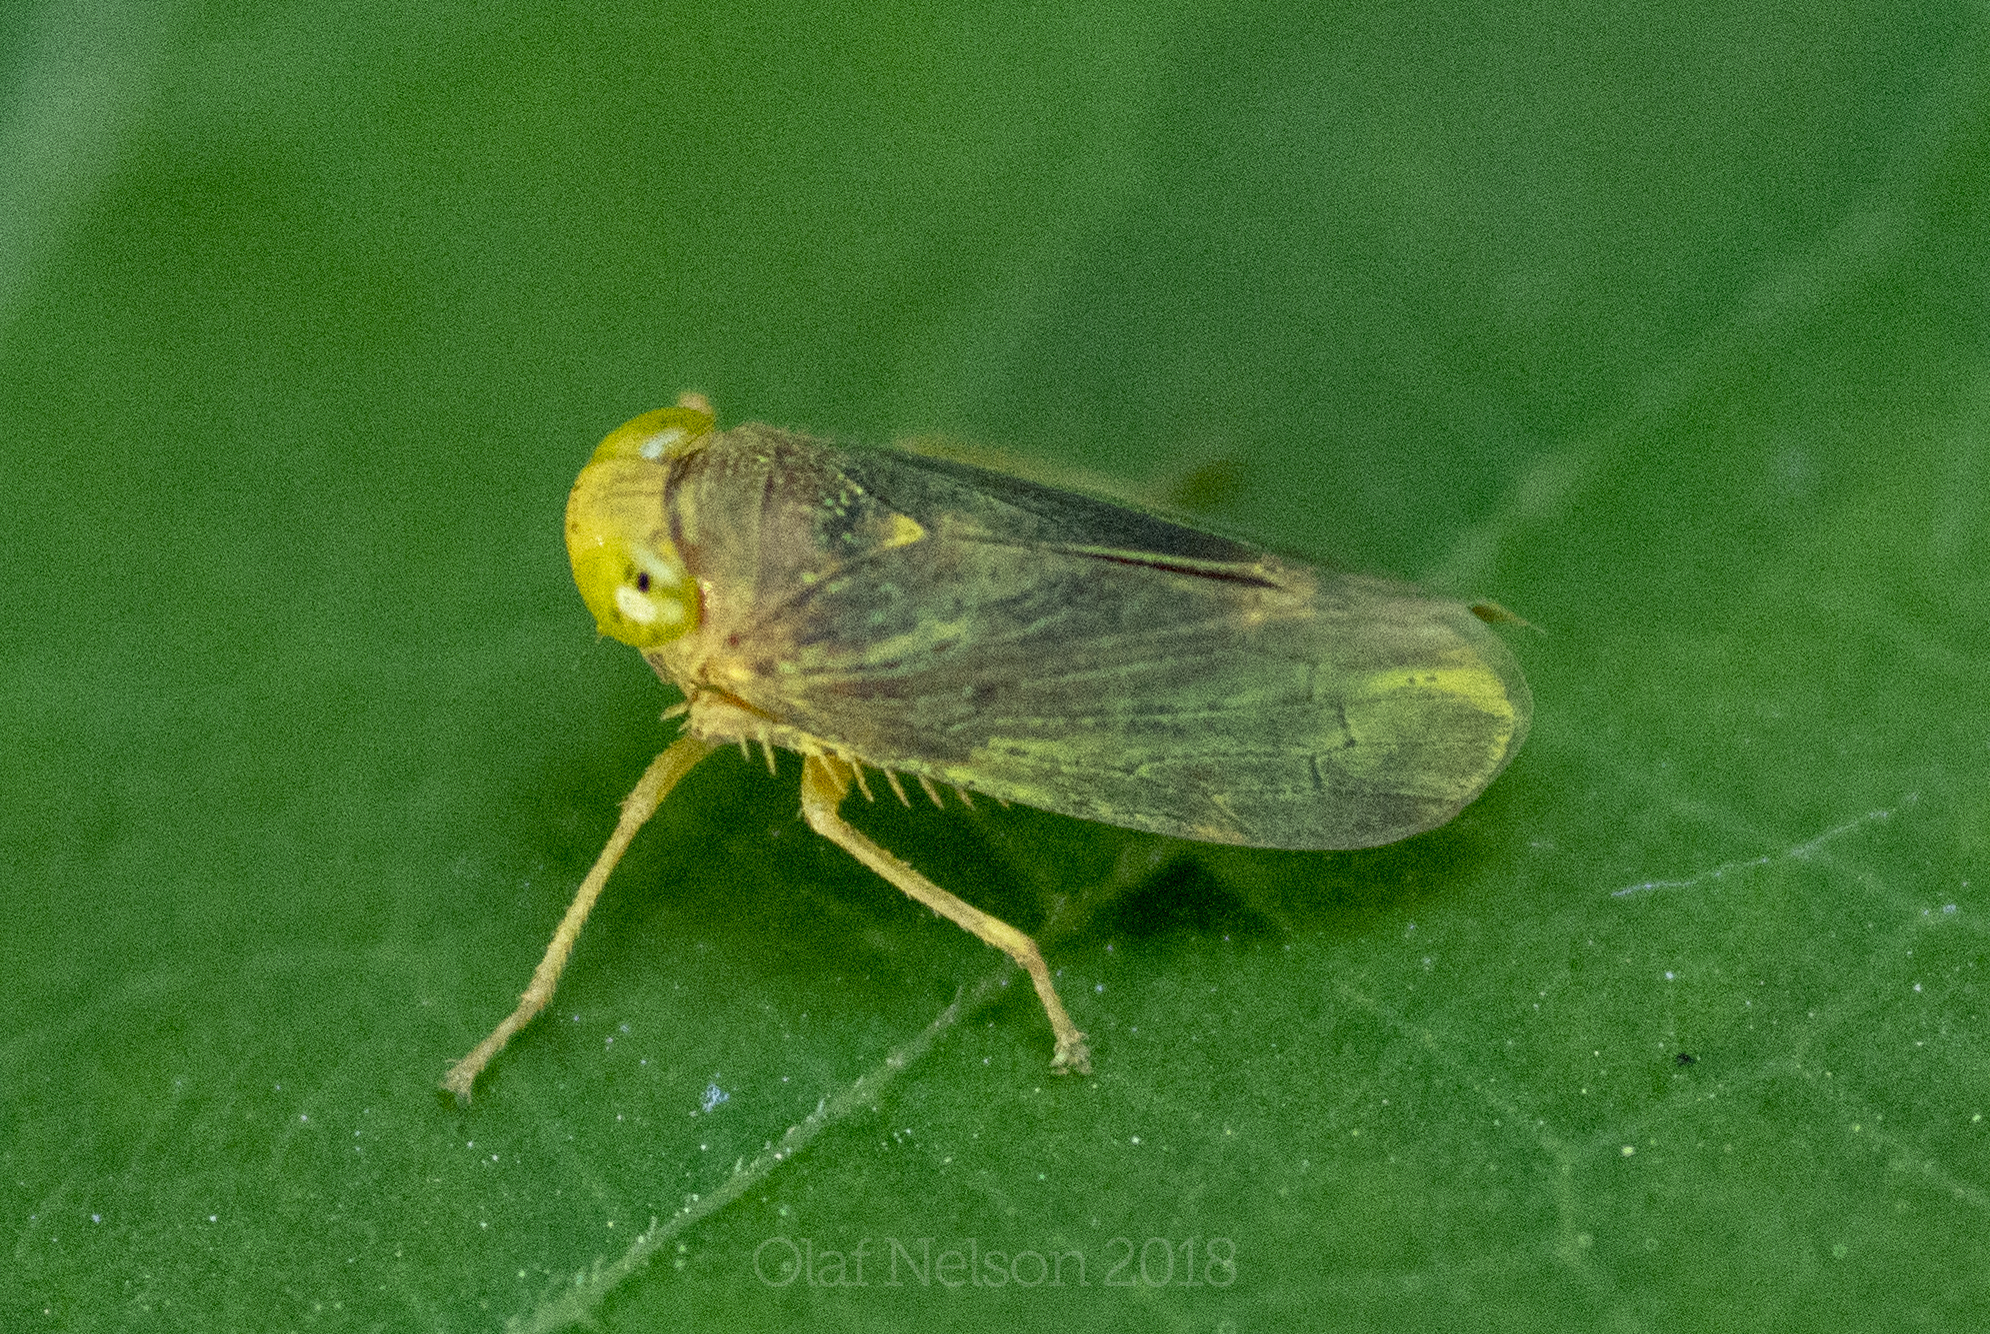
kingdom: Animalia
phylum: Arthropoda
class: Insecta
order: Hemiptera
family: Cicadellidae
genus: Jikradia
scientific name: Jikradia olitoria
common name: Coppery leafhopper
